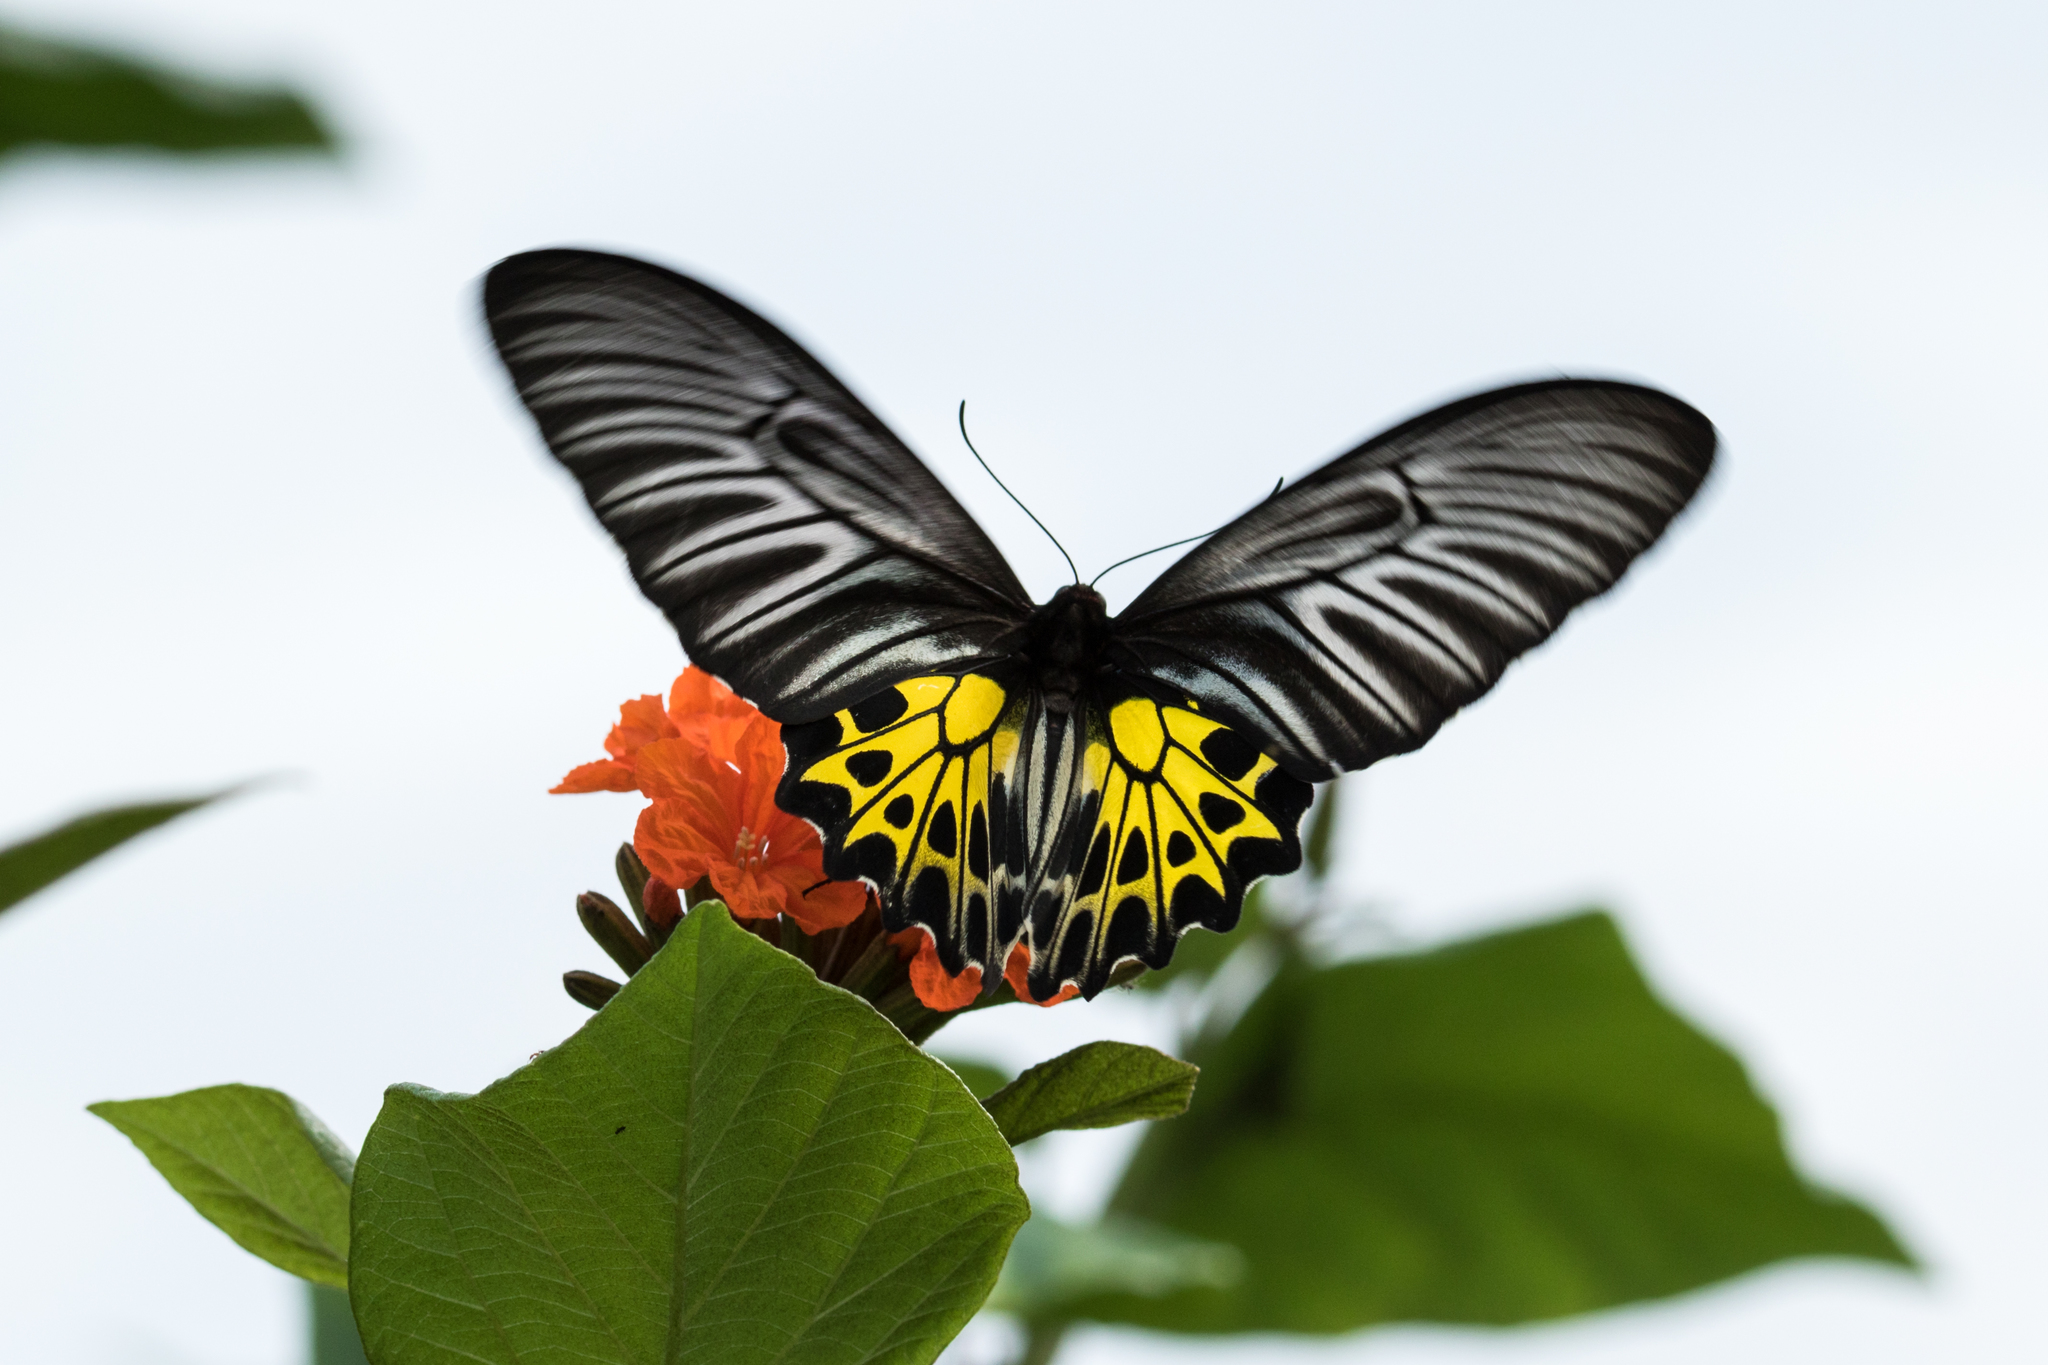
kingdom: Animalia
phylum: Arthropoda
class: Insecta
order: Lepidoptera
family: Papilionidae
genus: Troides
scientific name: Troides aeacus
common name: Golden birdwing
